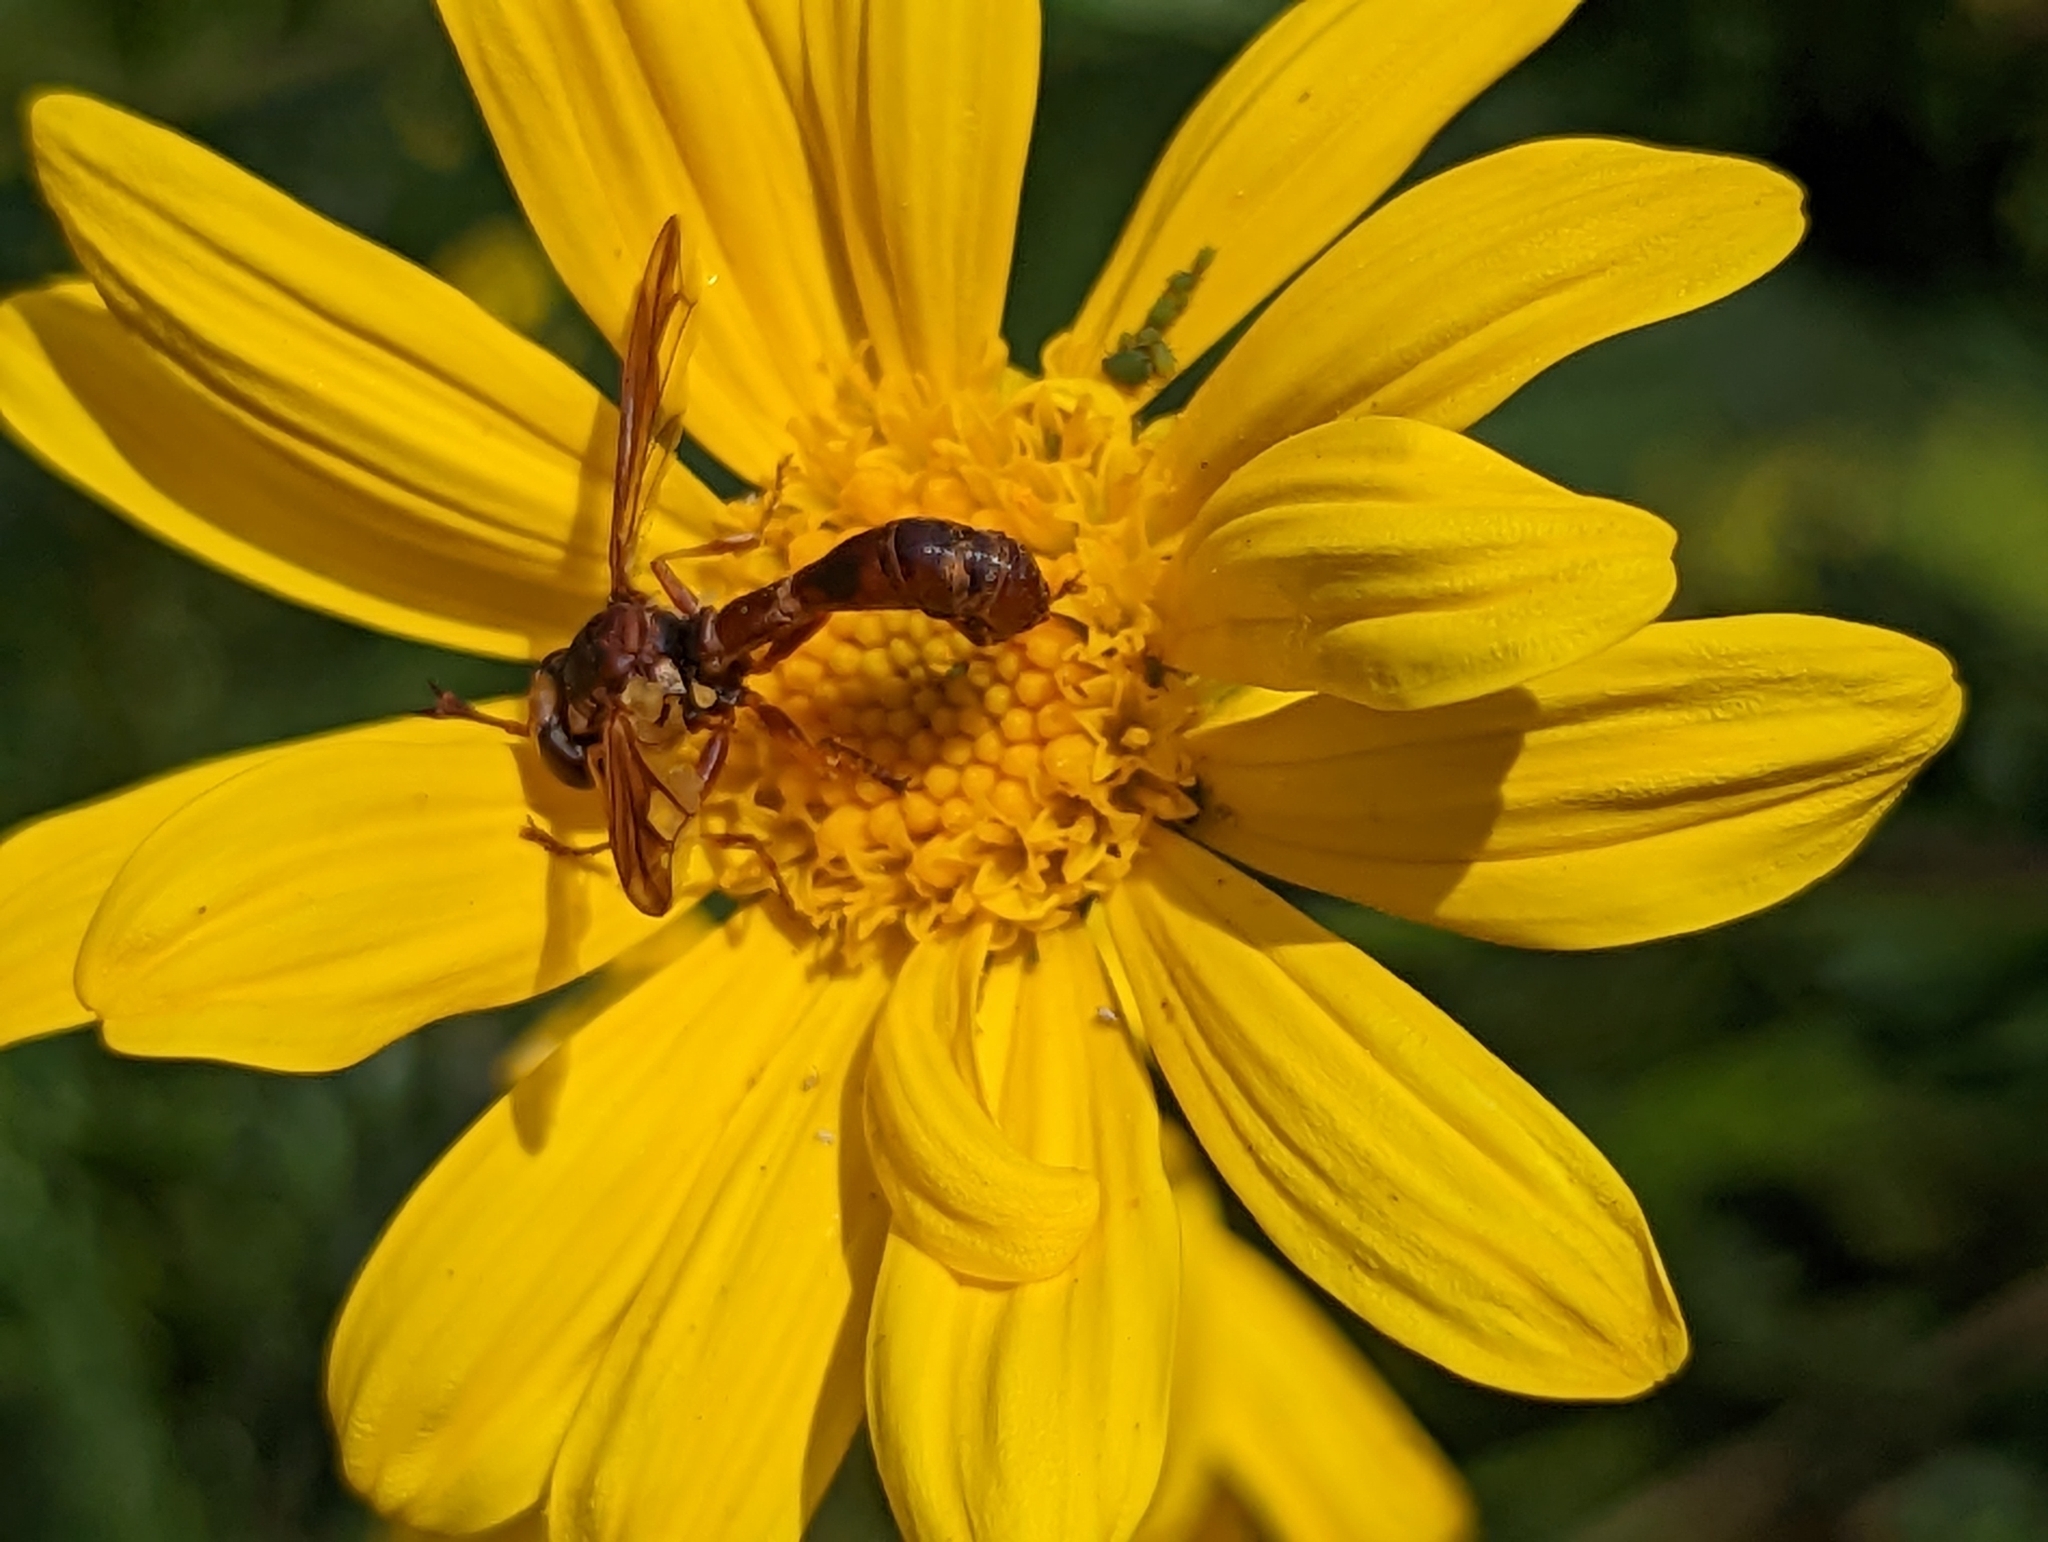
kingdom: Animalia
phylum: Arthropoda
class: Insecta
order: Diptera
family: Conopidae
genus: Physocephala
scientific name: Physocephala
